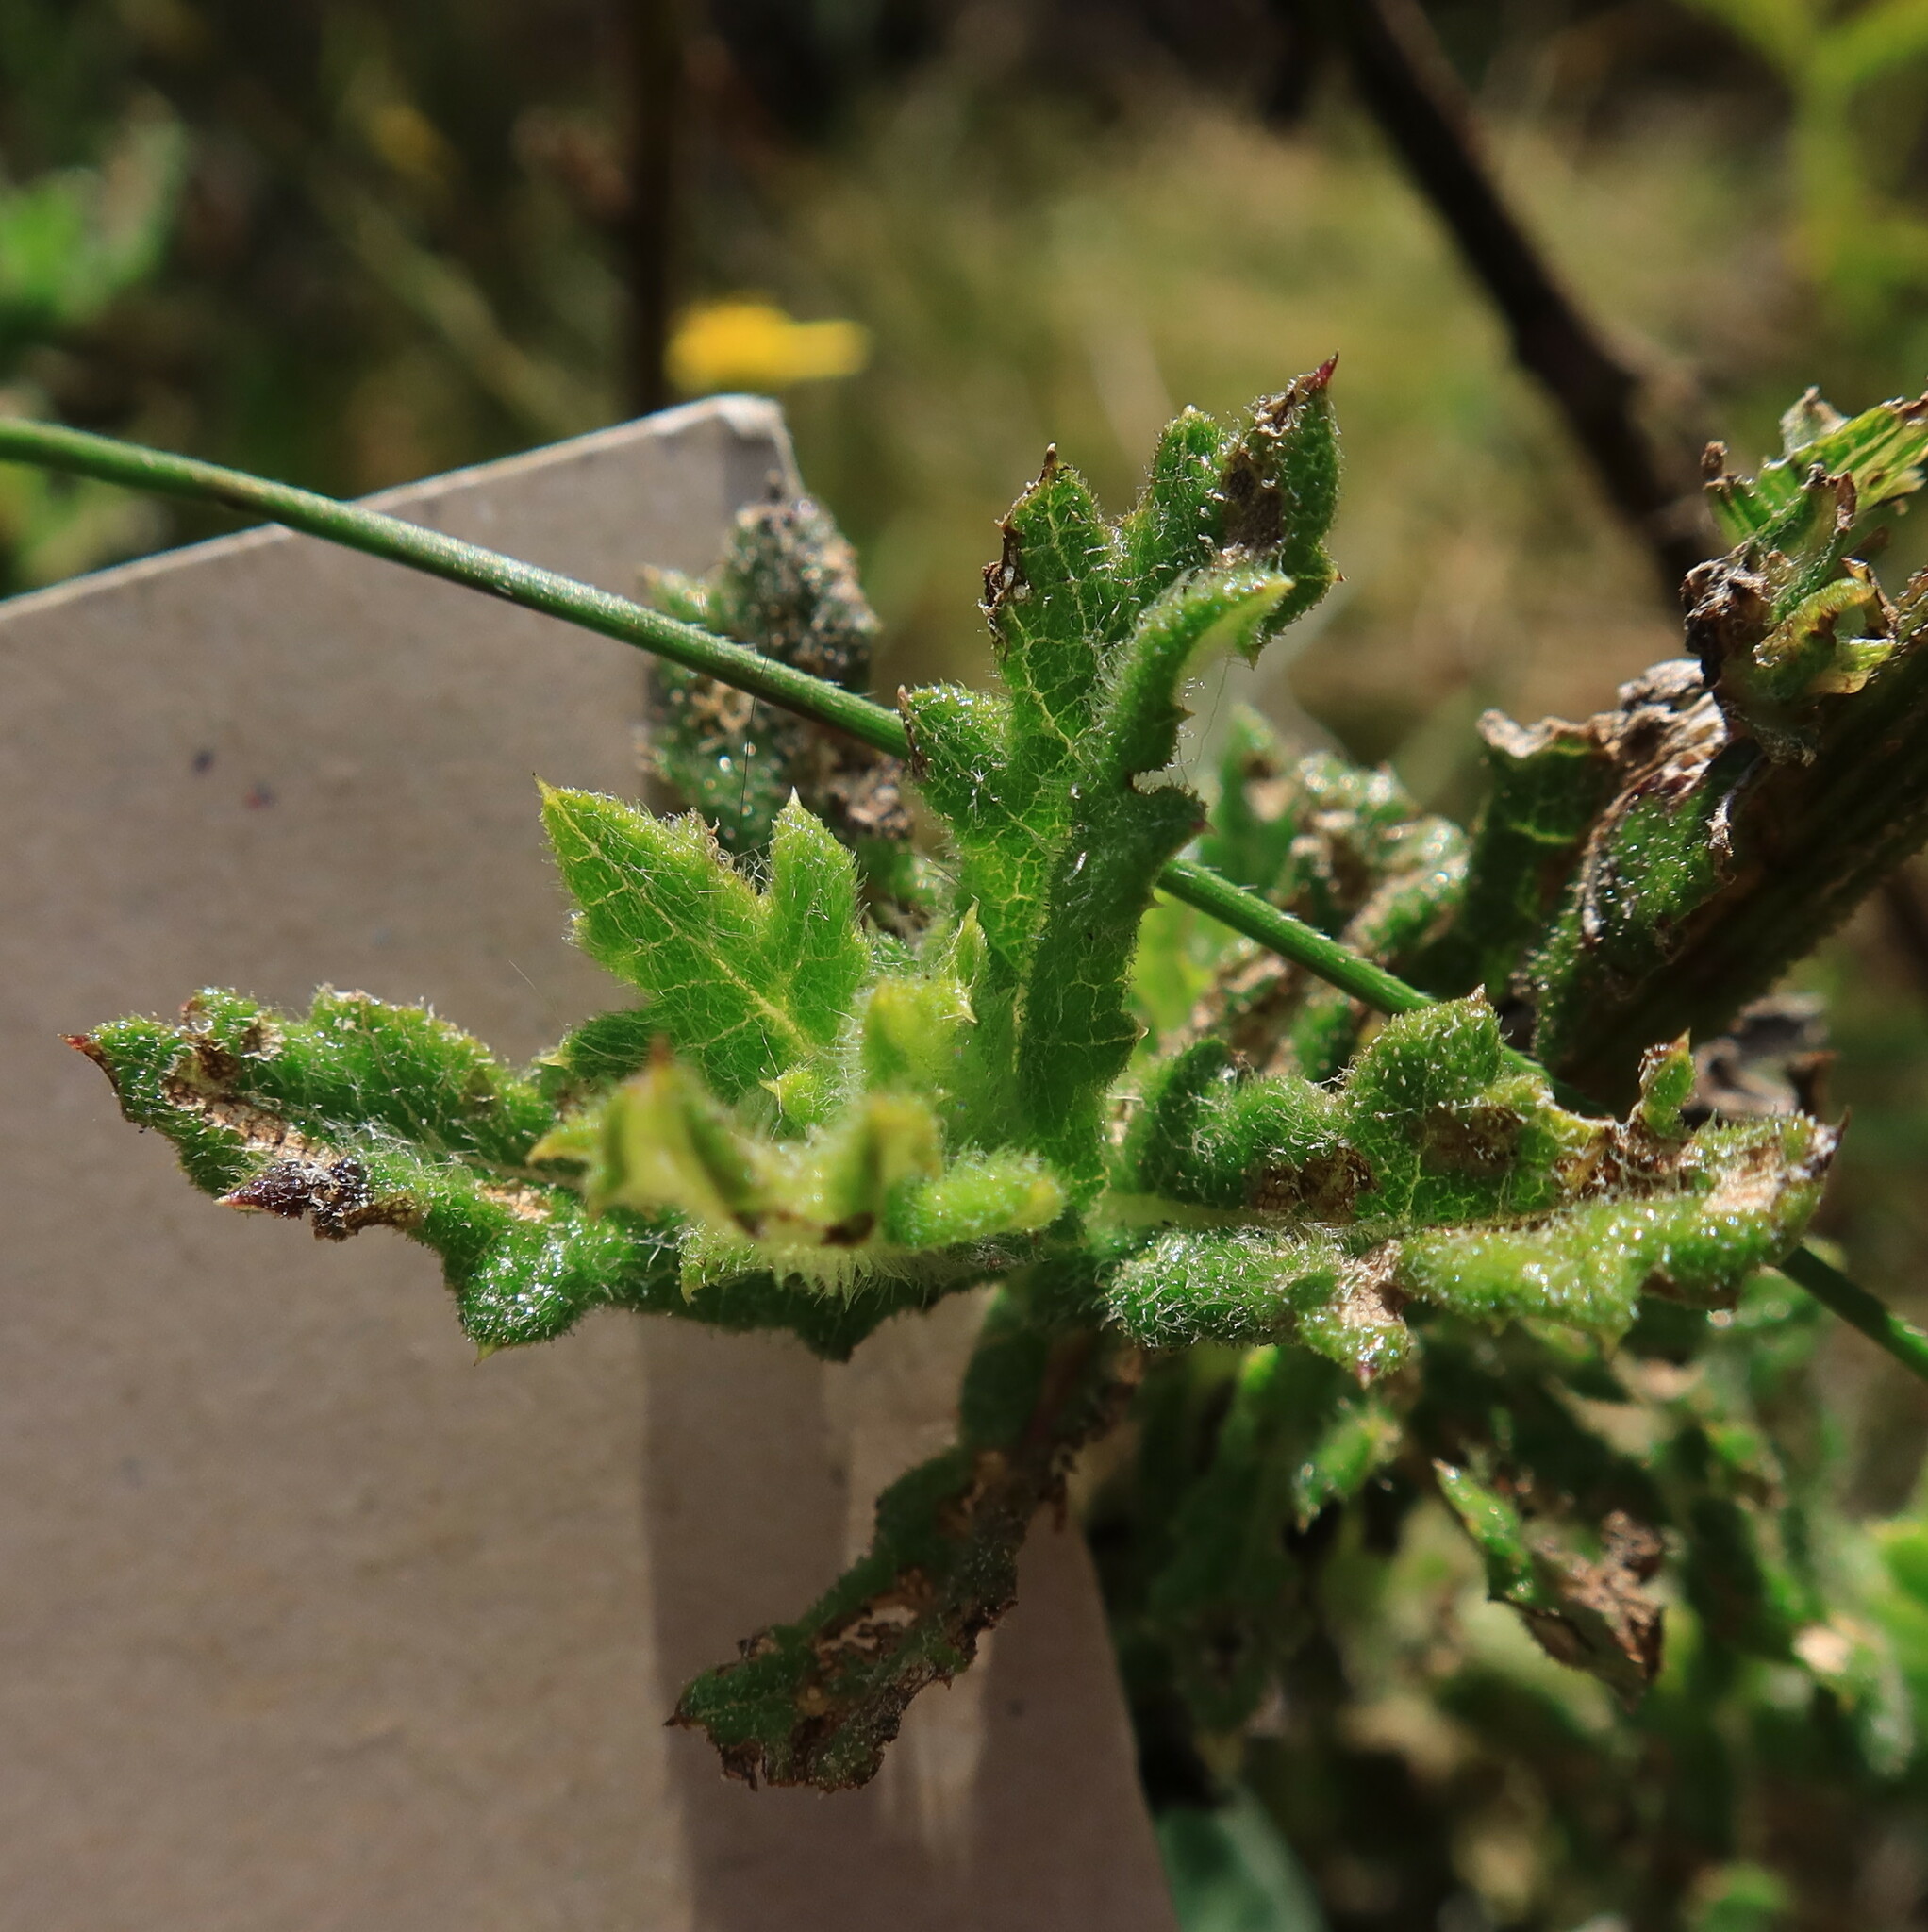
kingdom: Plantae
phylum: Tracheophyta
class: Magnoliopsida
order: Asterales
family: Asteraceae
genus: Senecio
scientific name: Senecio pubigerus
